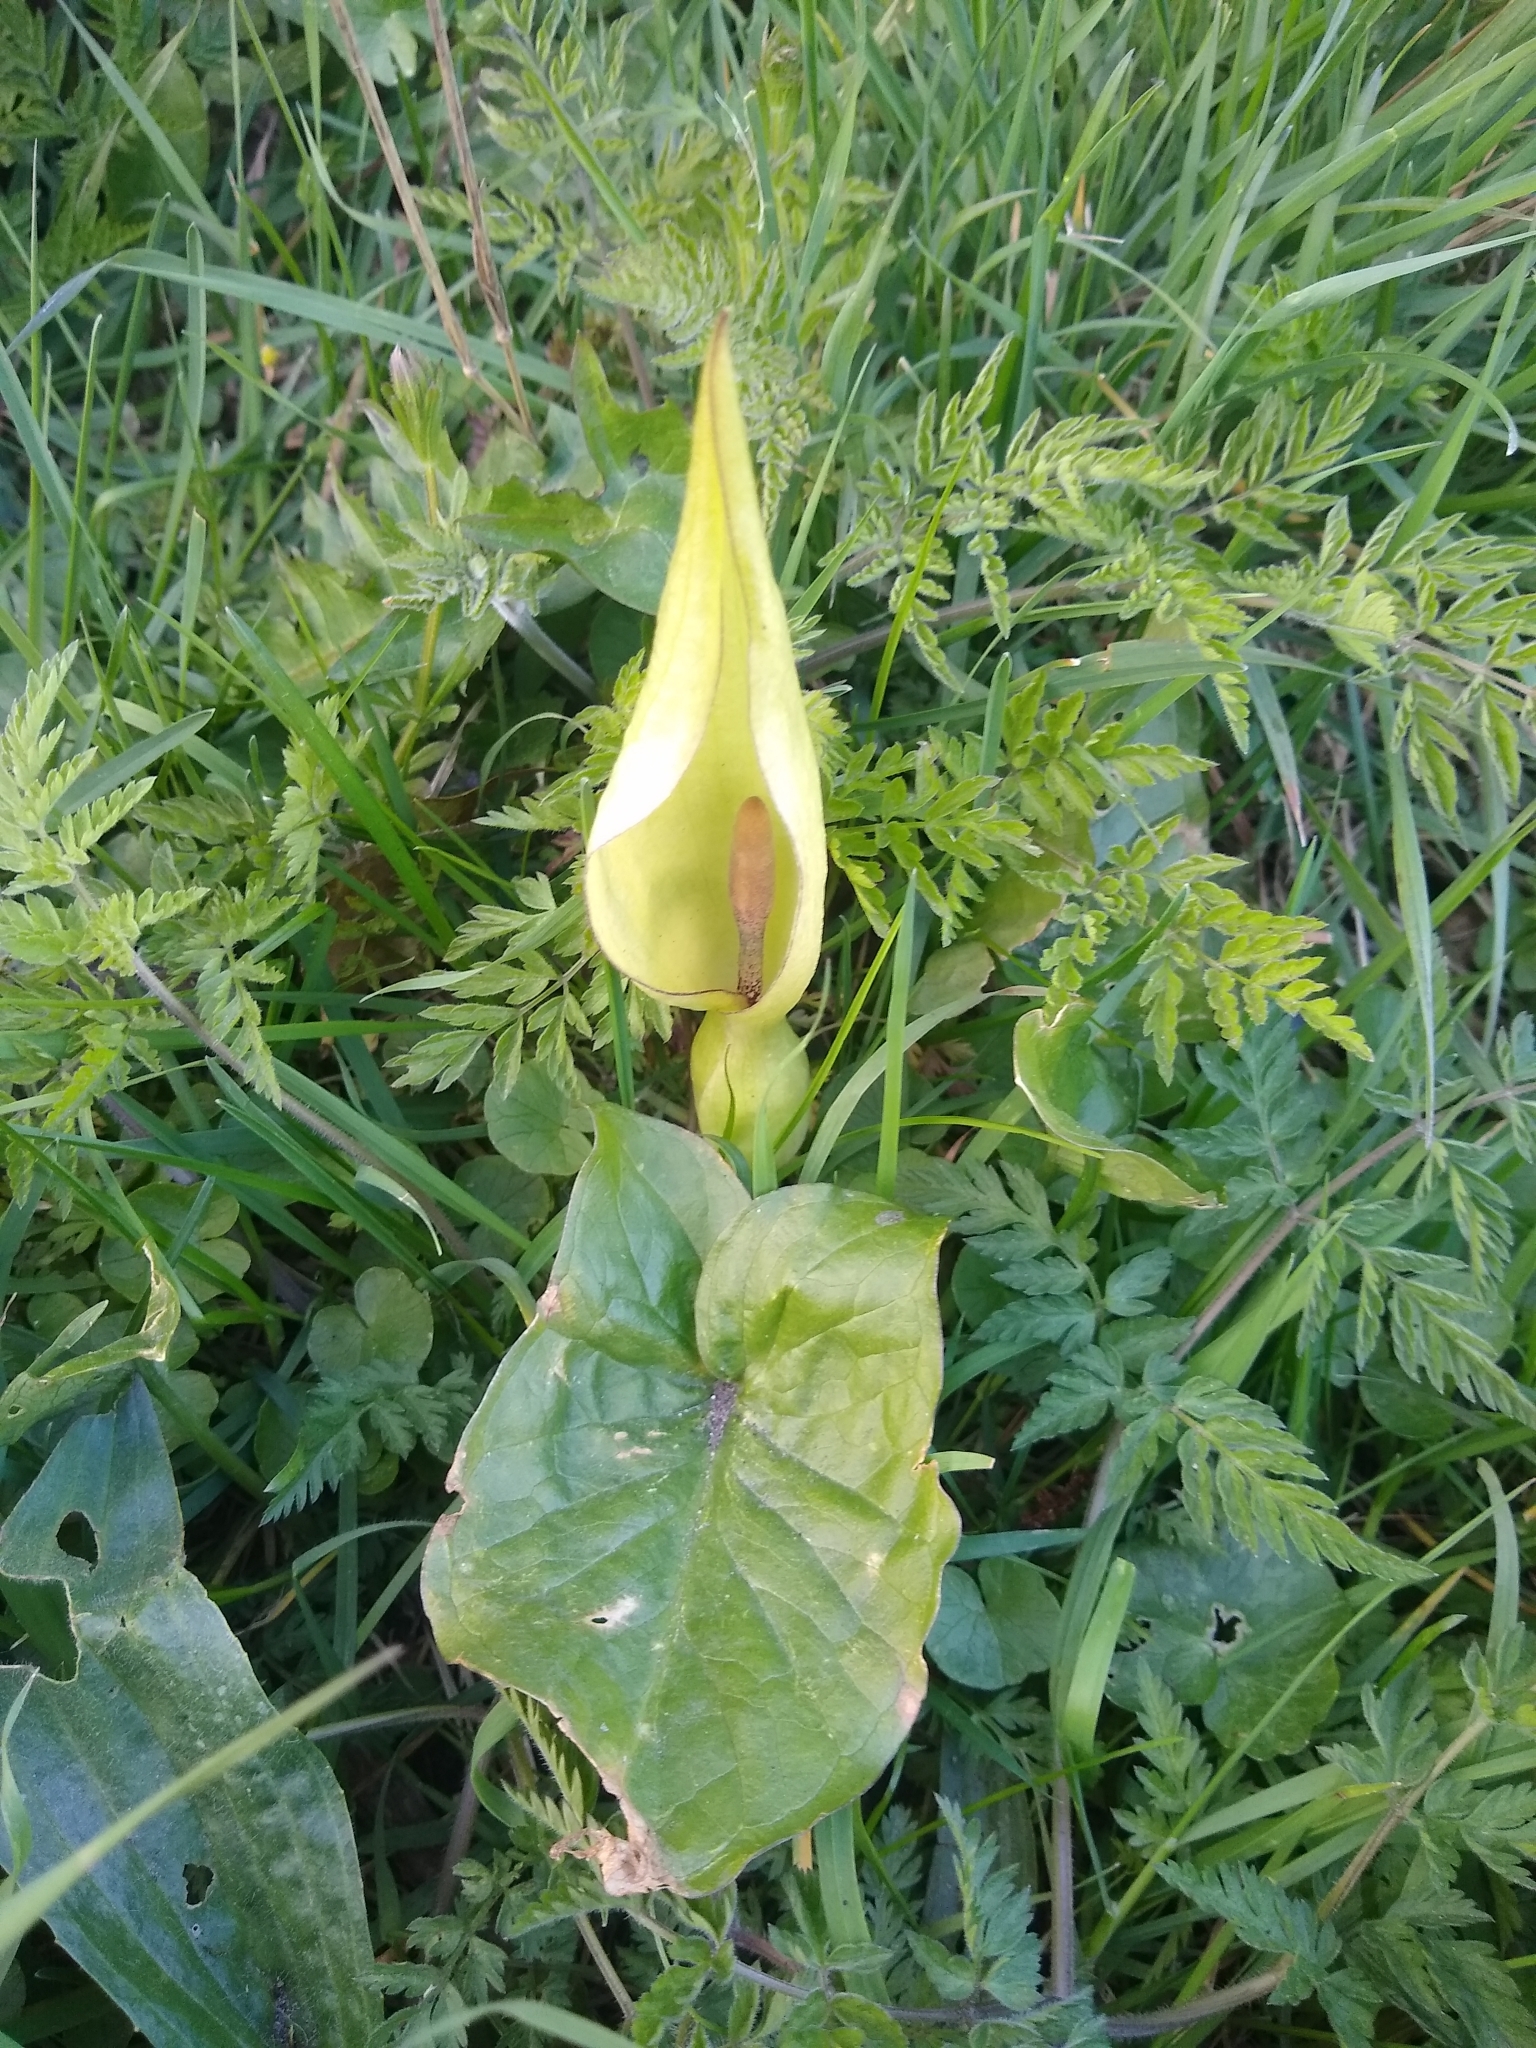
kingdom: Plantae
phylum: Tracheophyta
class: Liliopsida
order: Alismatales
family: Araceae
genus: Arum
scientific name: Arum maculatum
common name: Lords-and-ladies
